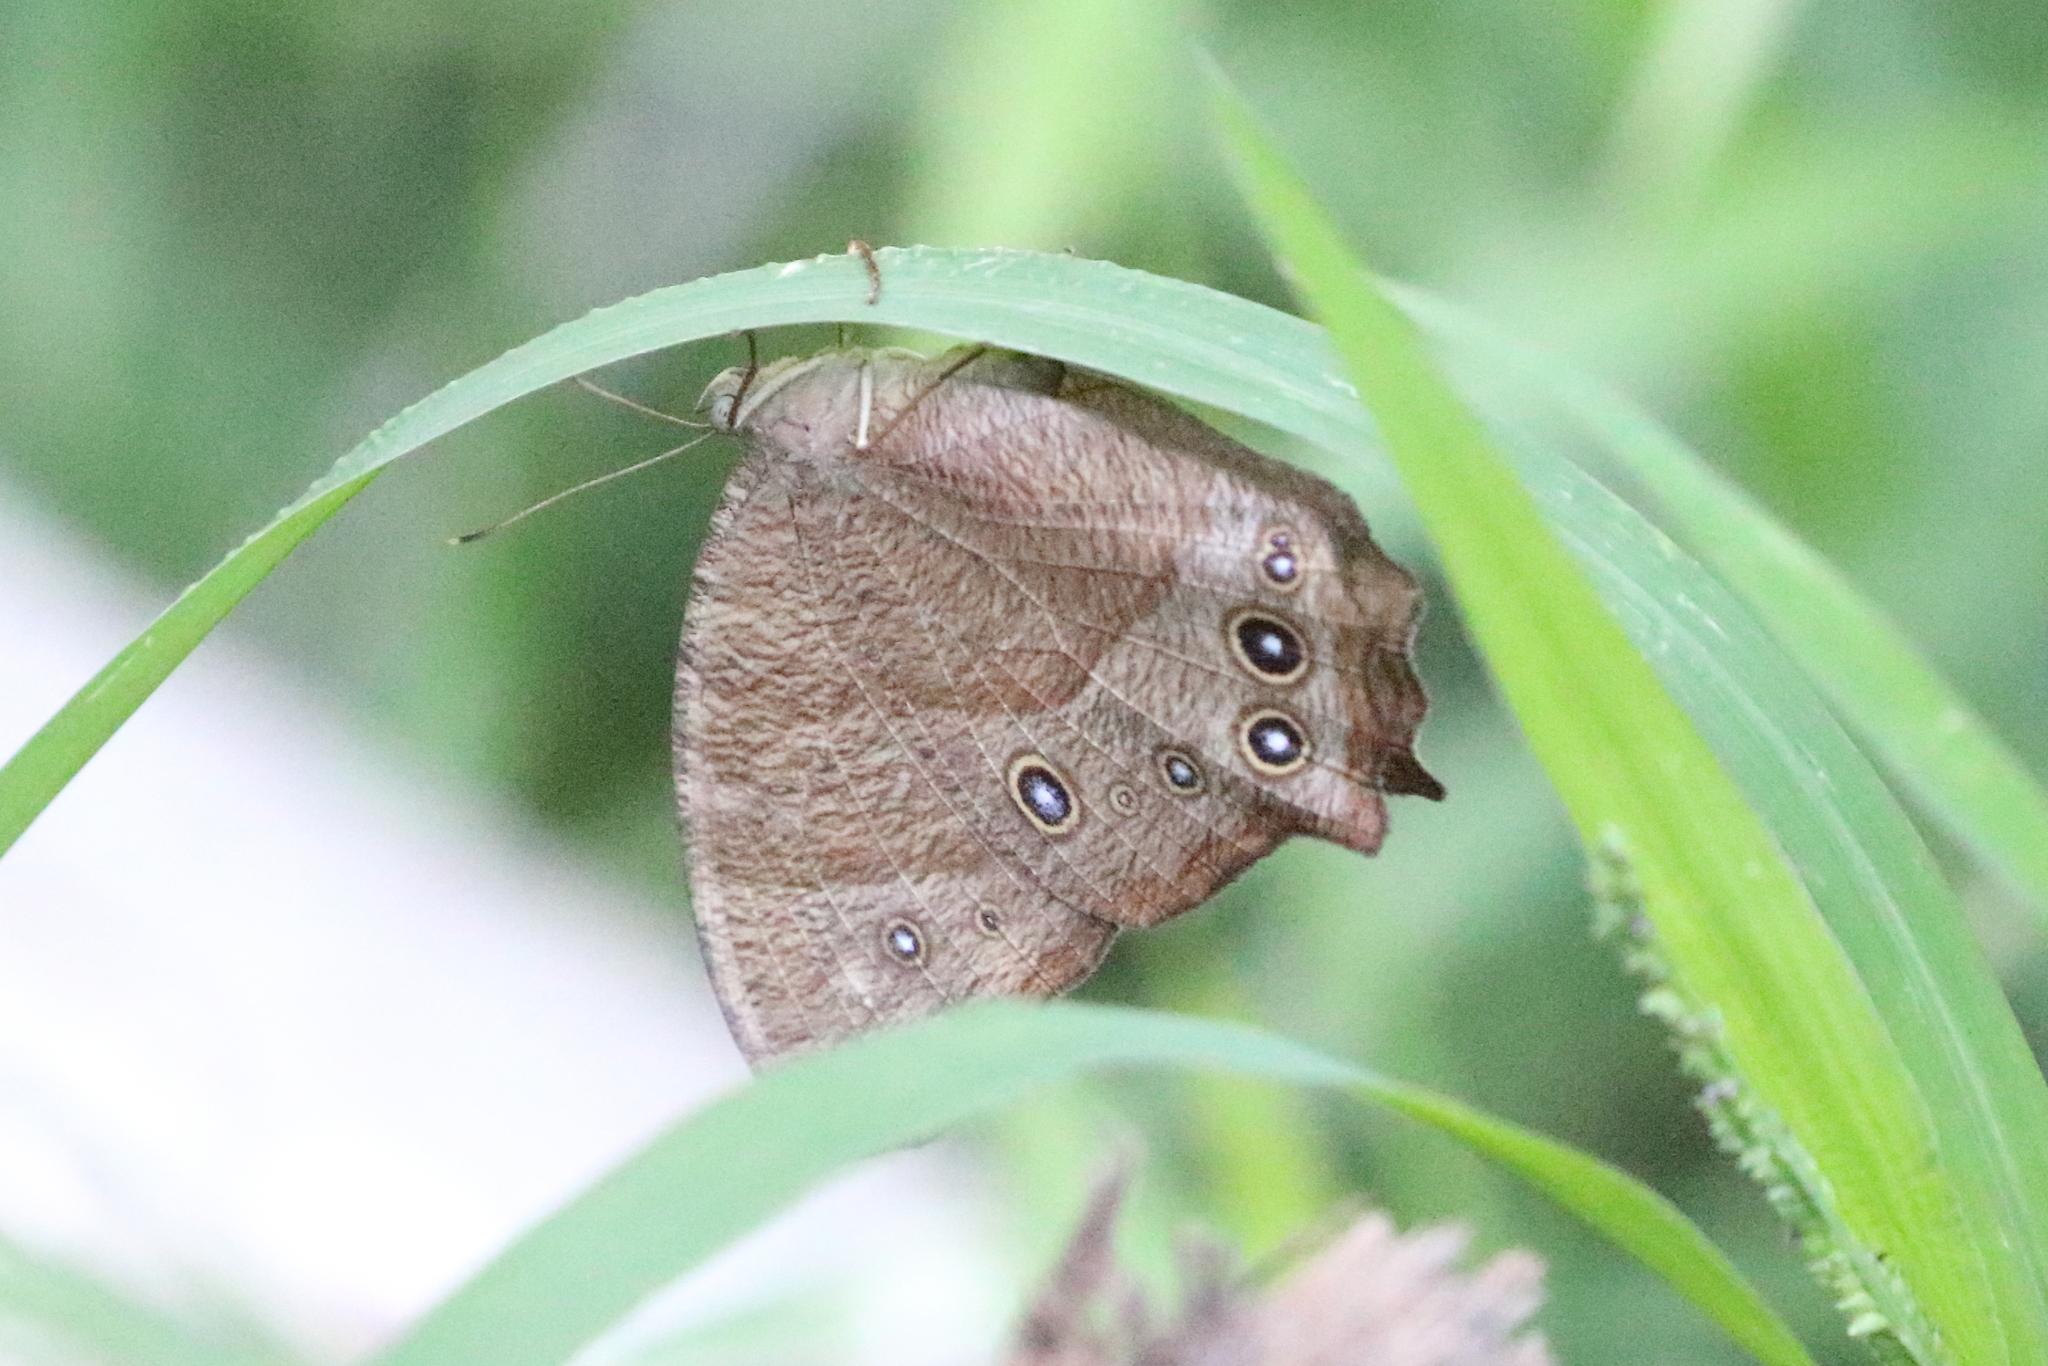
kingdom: Animalia
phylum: Arthropoda
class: Insecta
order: Lepidoptera
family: Nymphalidae
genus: Melanitis
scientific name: Melanitis leda
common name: Twilight brown
